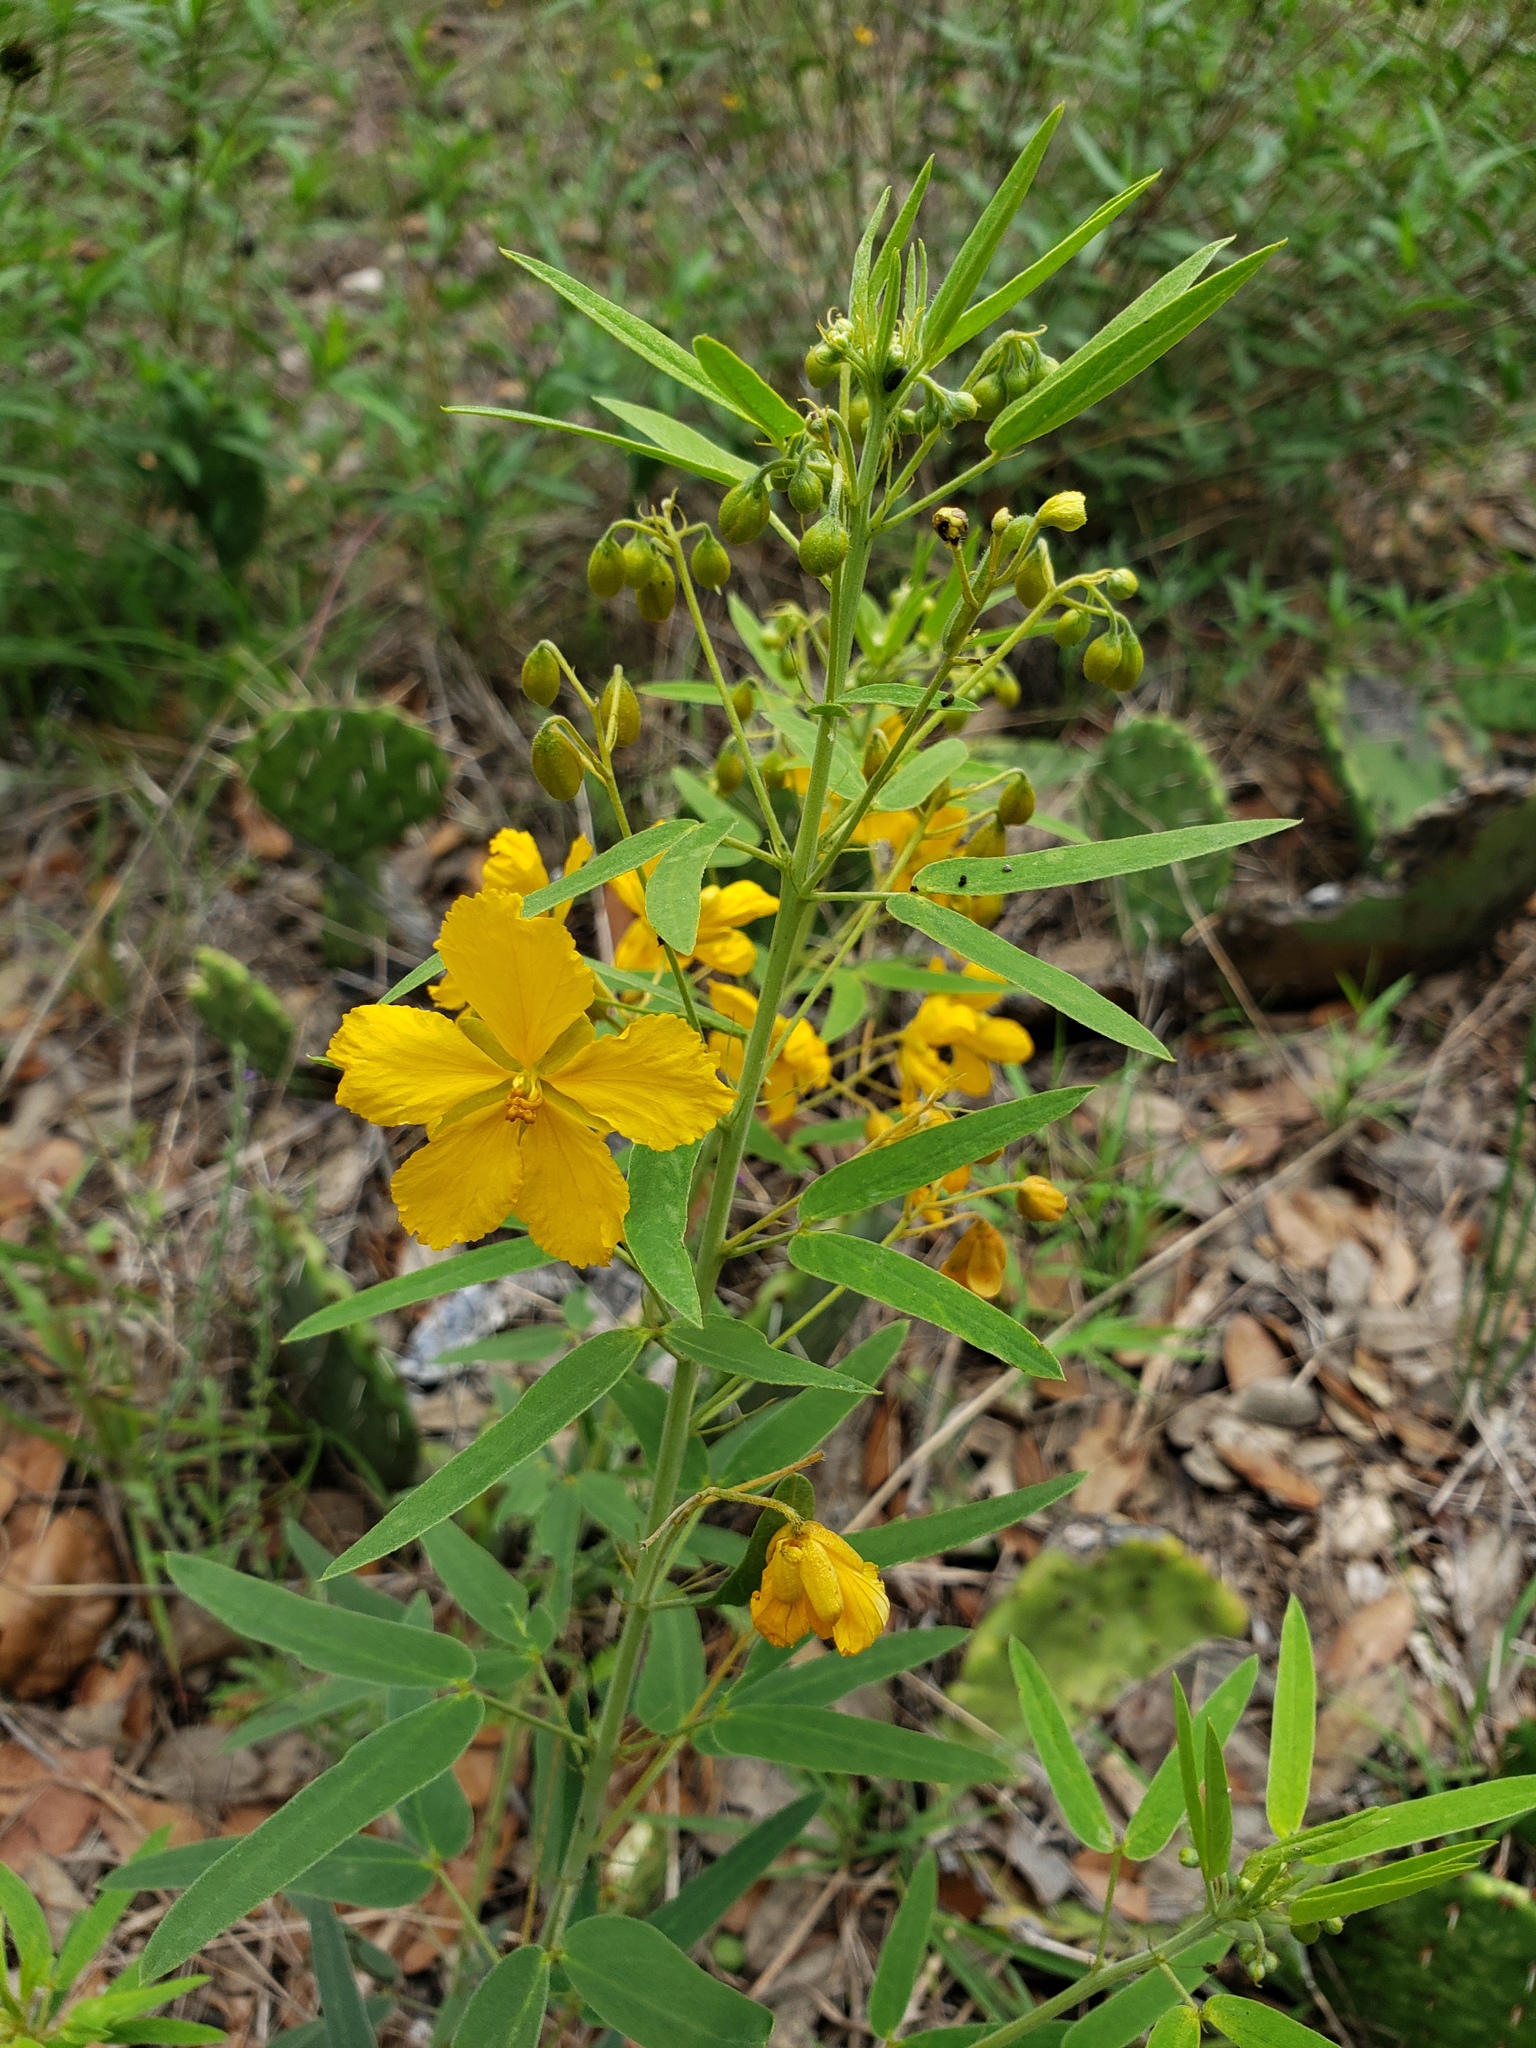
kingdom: Plantae
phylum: Tracheophyta
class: Magnoliopsida
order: Fabales
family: Fabaceae
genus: Senna
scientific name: Senna roemeriana
